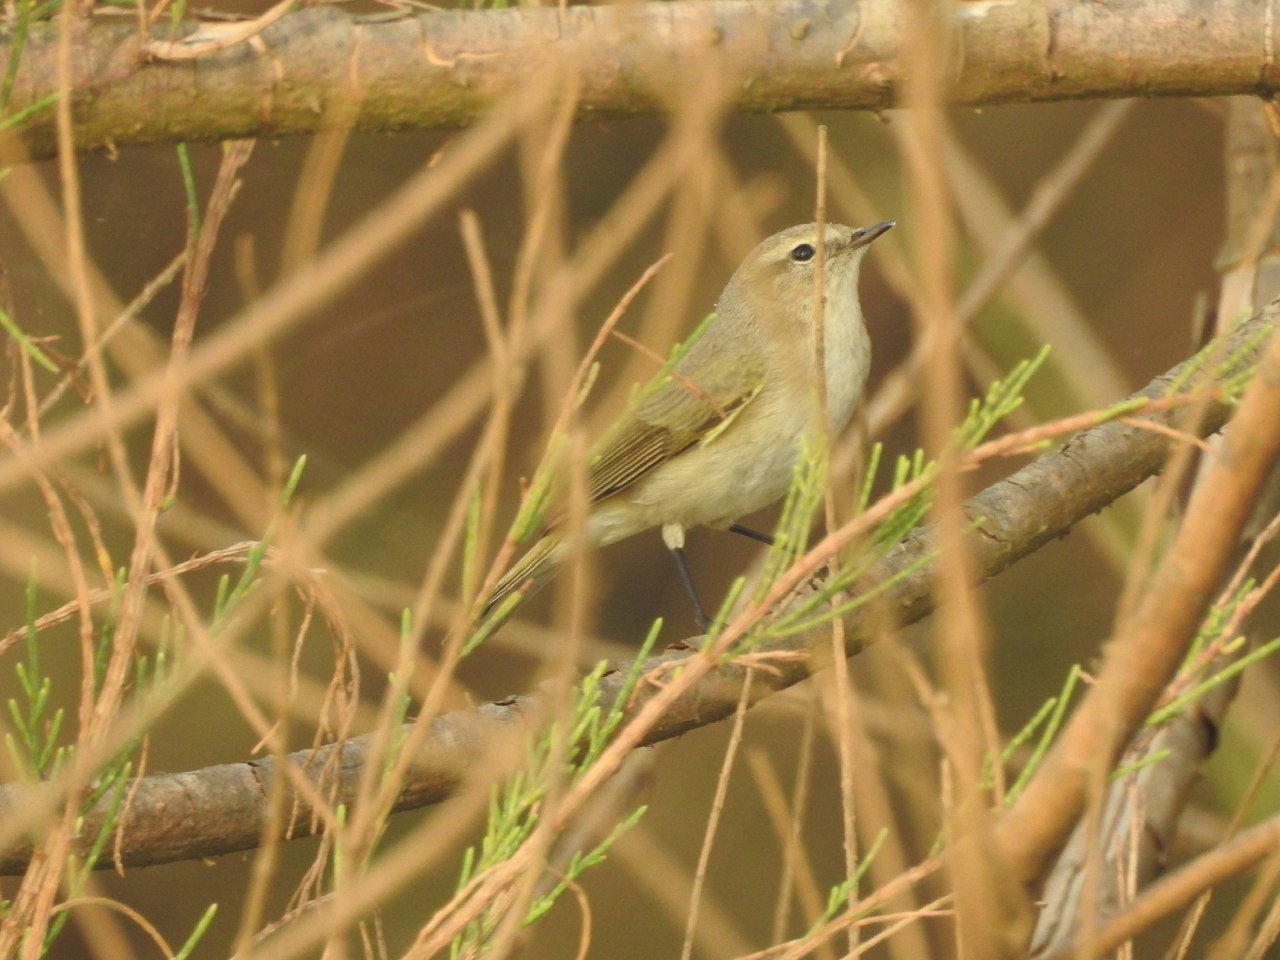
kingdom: Animalia
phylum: Chordata
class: Aves
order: Passeriformes
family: Phylloscopidae
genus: Phylloscopus
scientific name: Phylloscopus collybita
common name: Common chiffchaff
